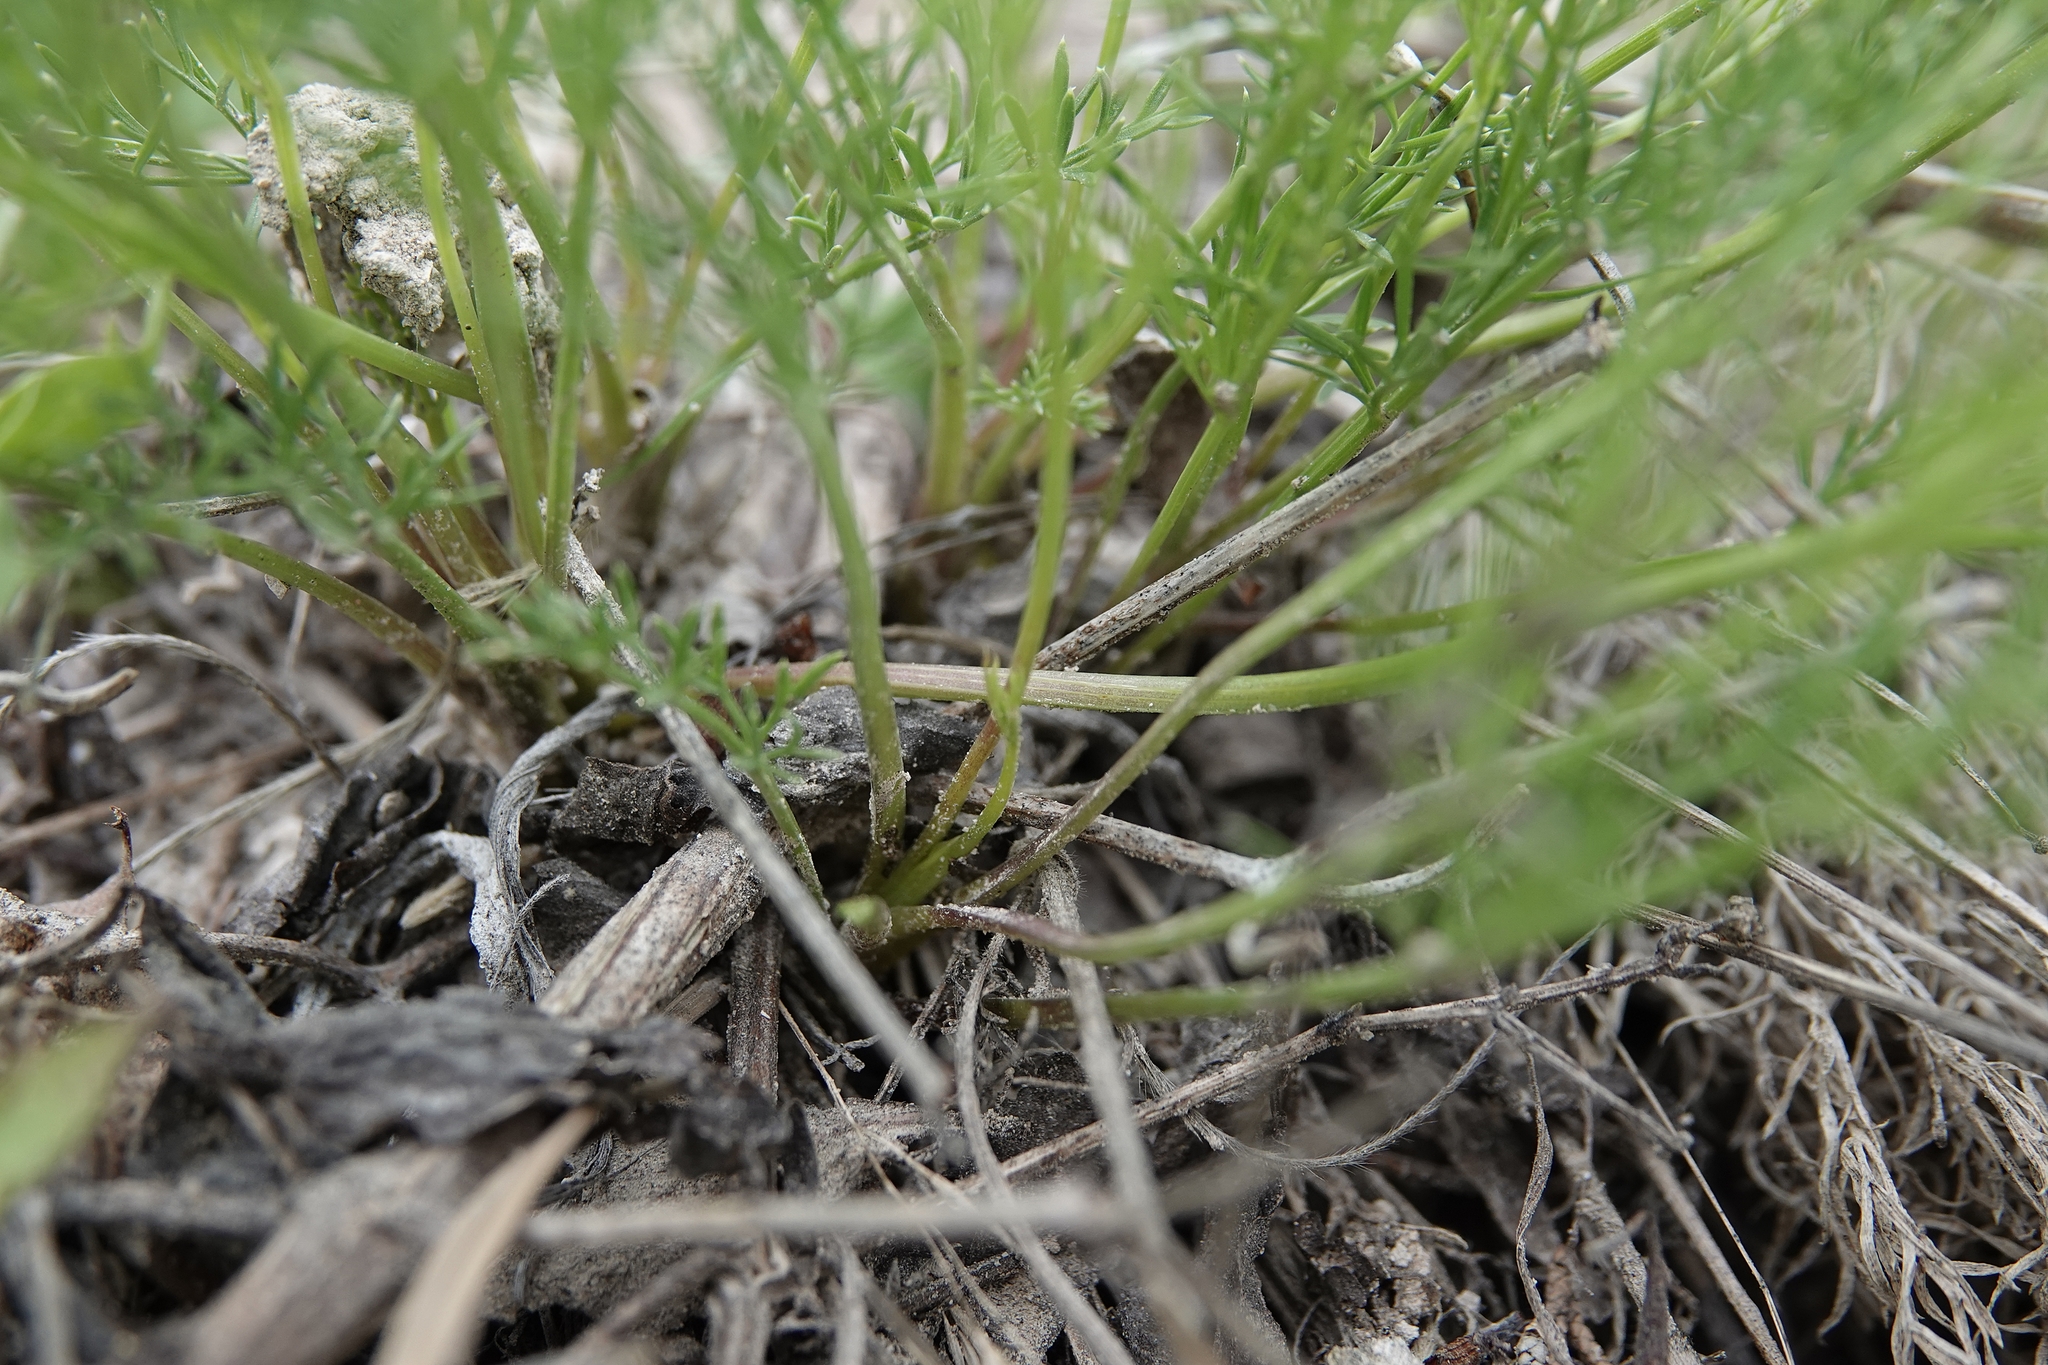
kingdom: Plantae
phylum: Tracheophyta
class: Magnoliopsida
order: Apiales
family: Apiaceae
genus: Musineon
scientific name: Musineon tenuifolium
